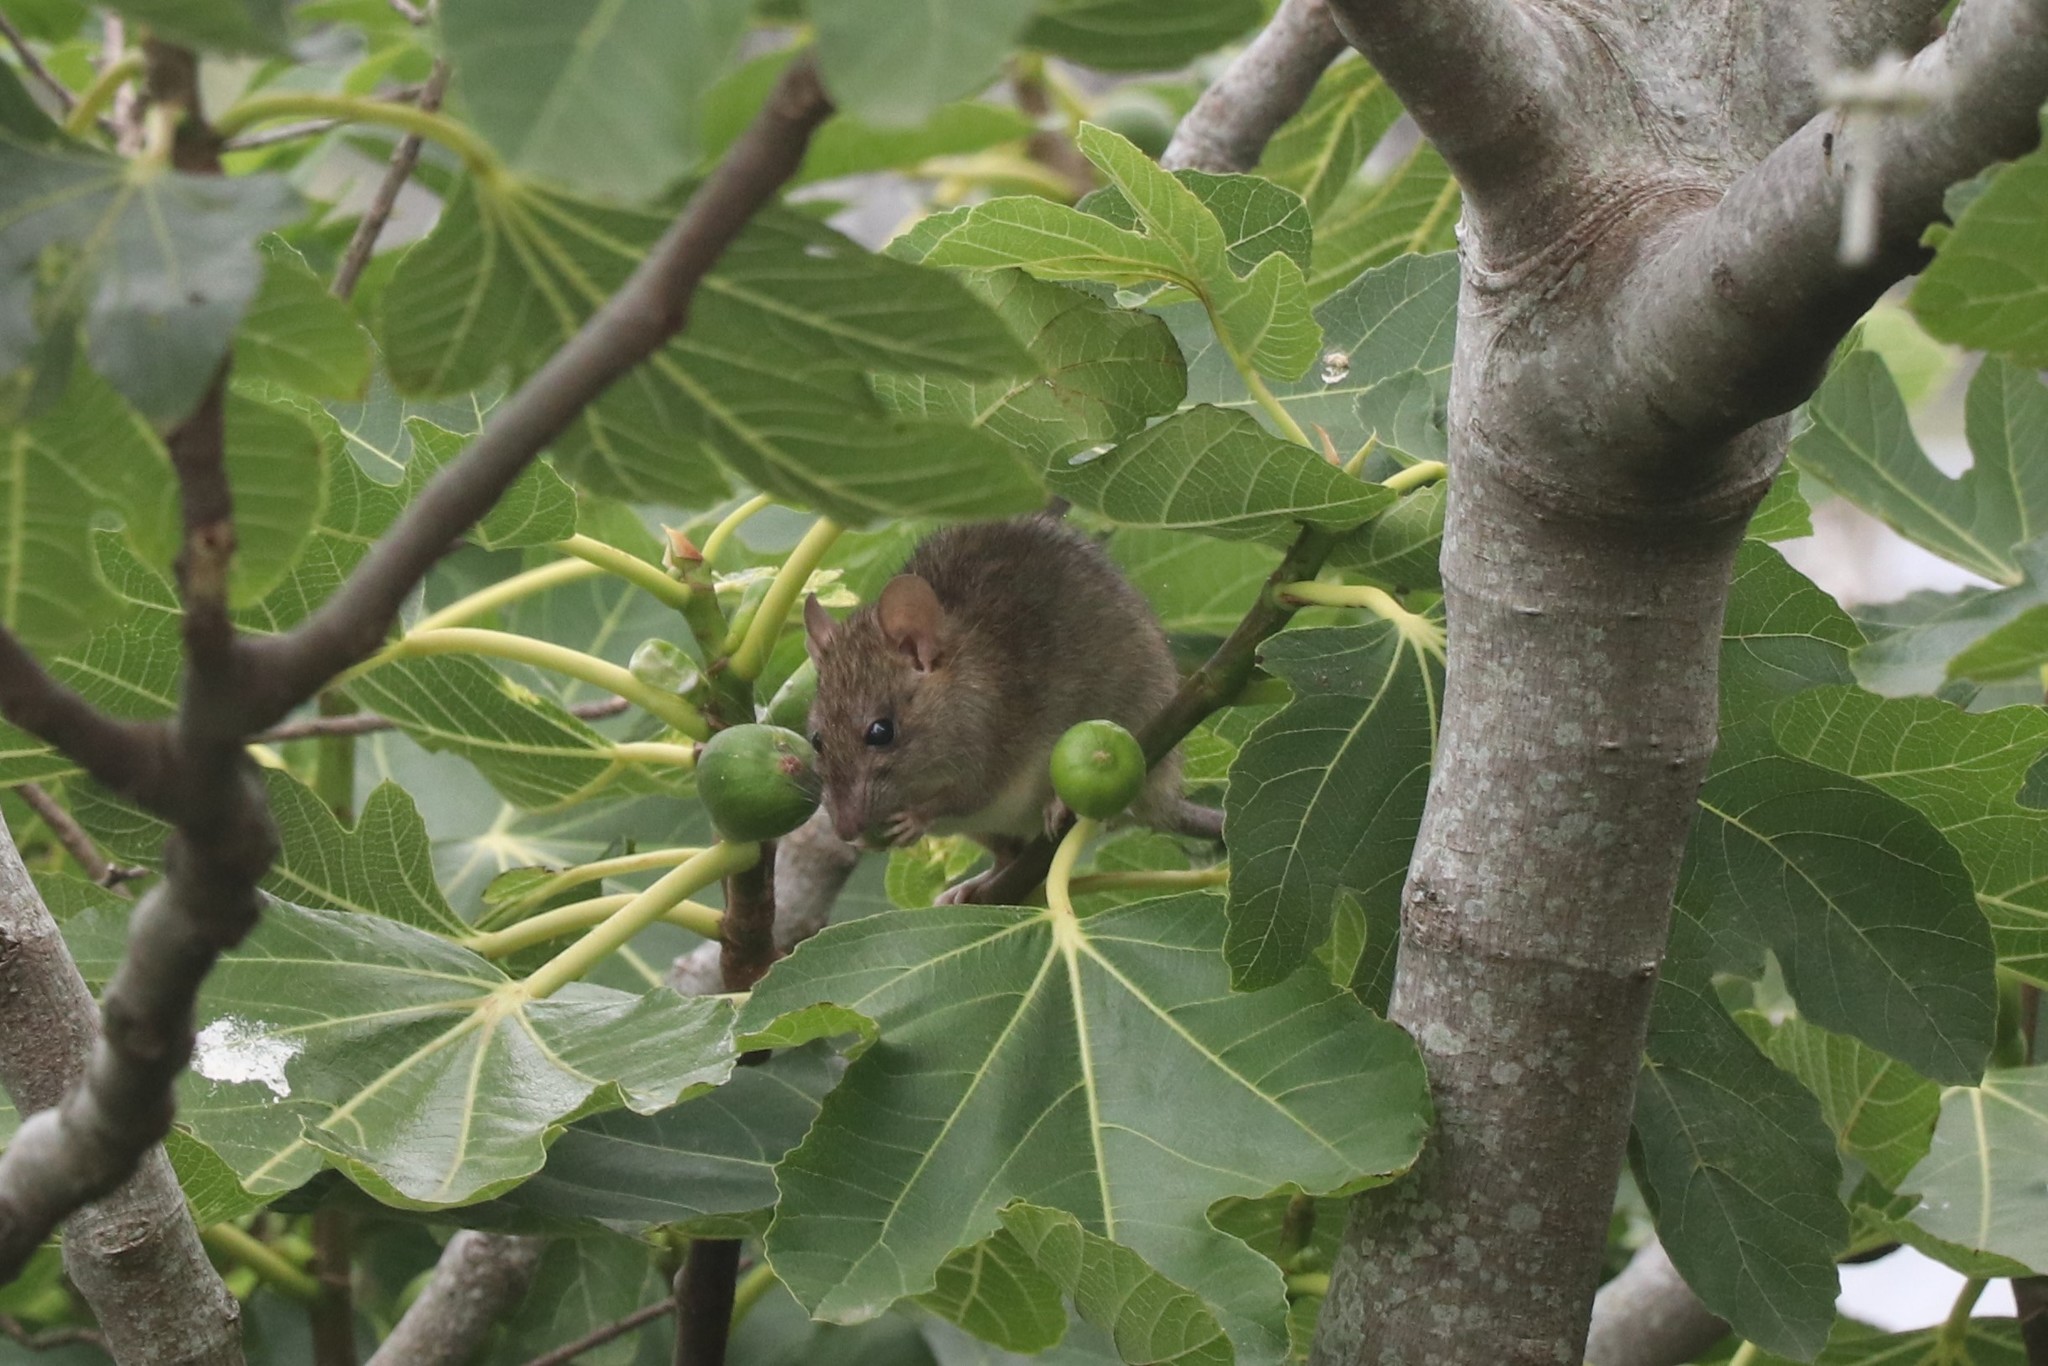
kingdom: Animalia
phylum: Chordata
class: Mammalia
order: Rodentia
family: Muridae
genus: Rattus
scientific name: Rattus rattus
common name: Black rat
